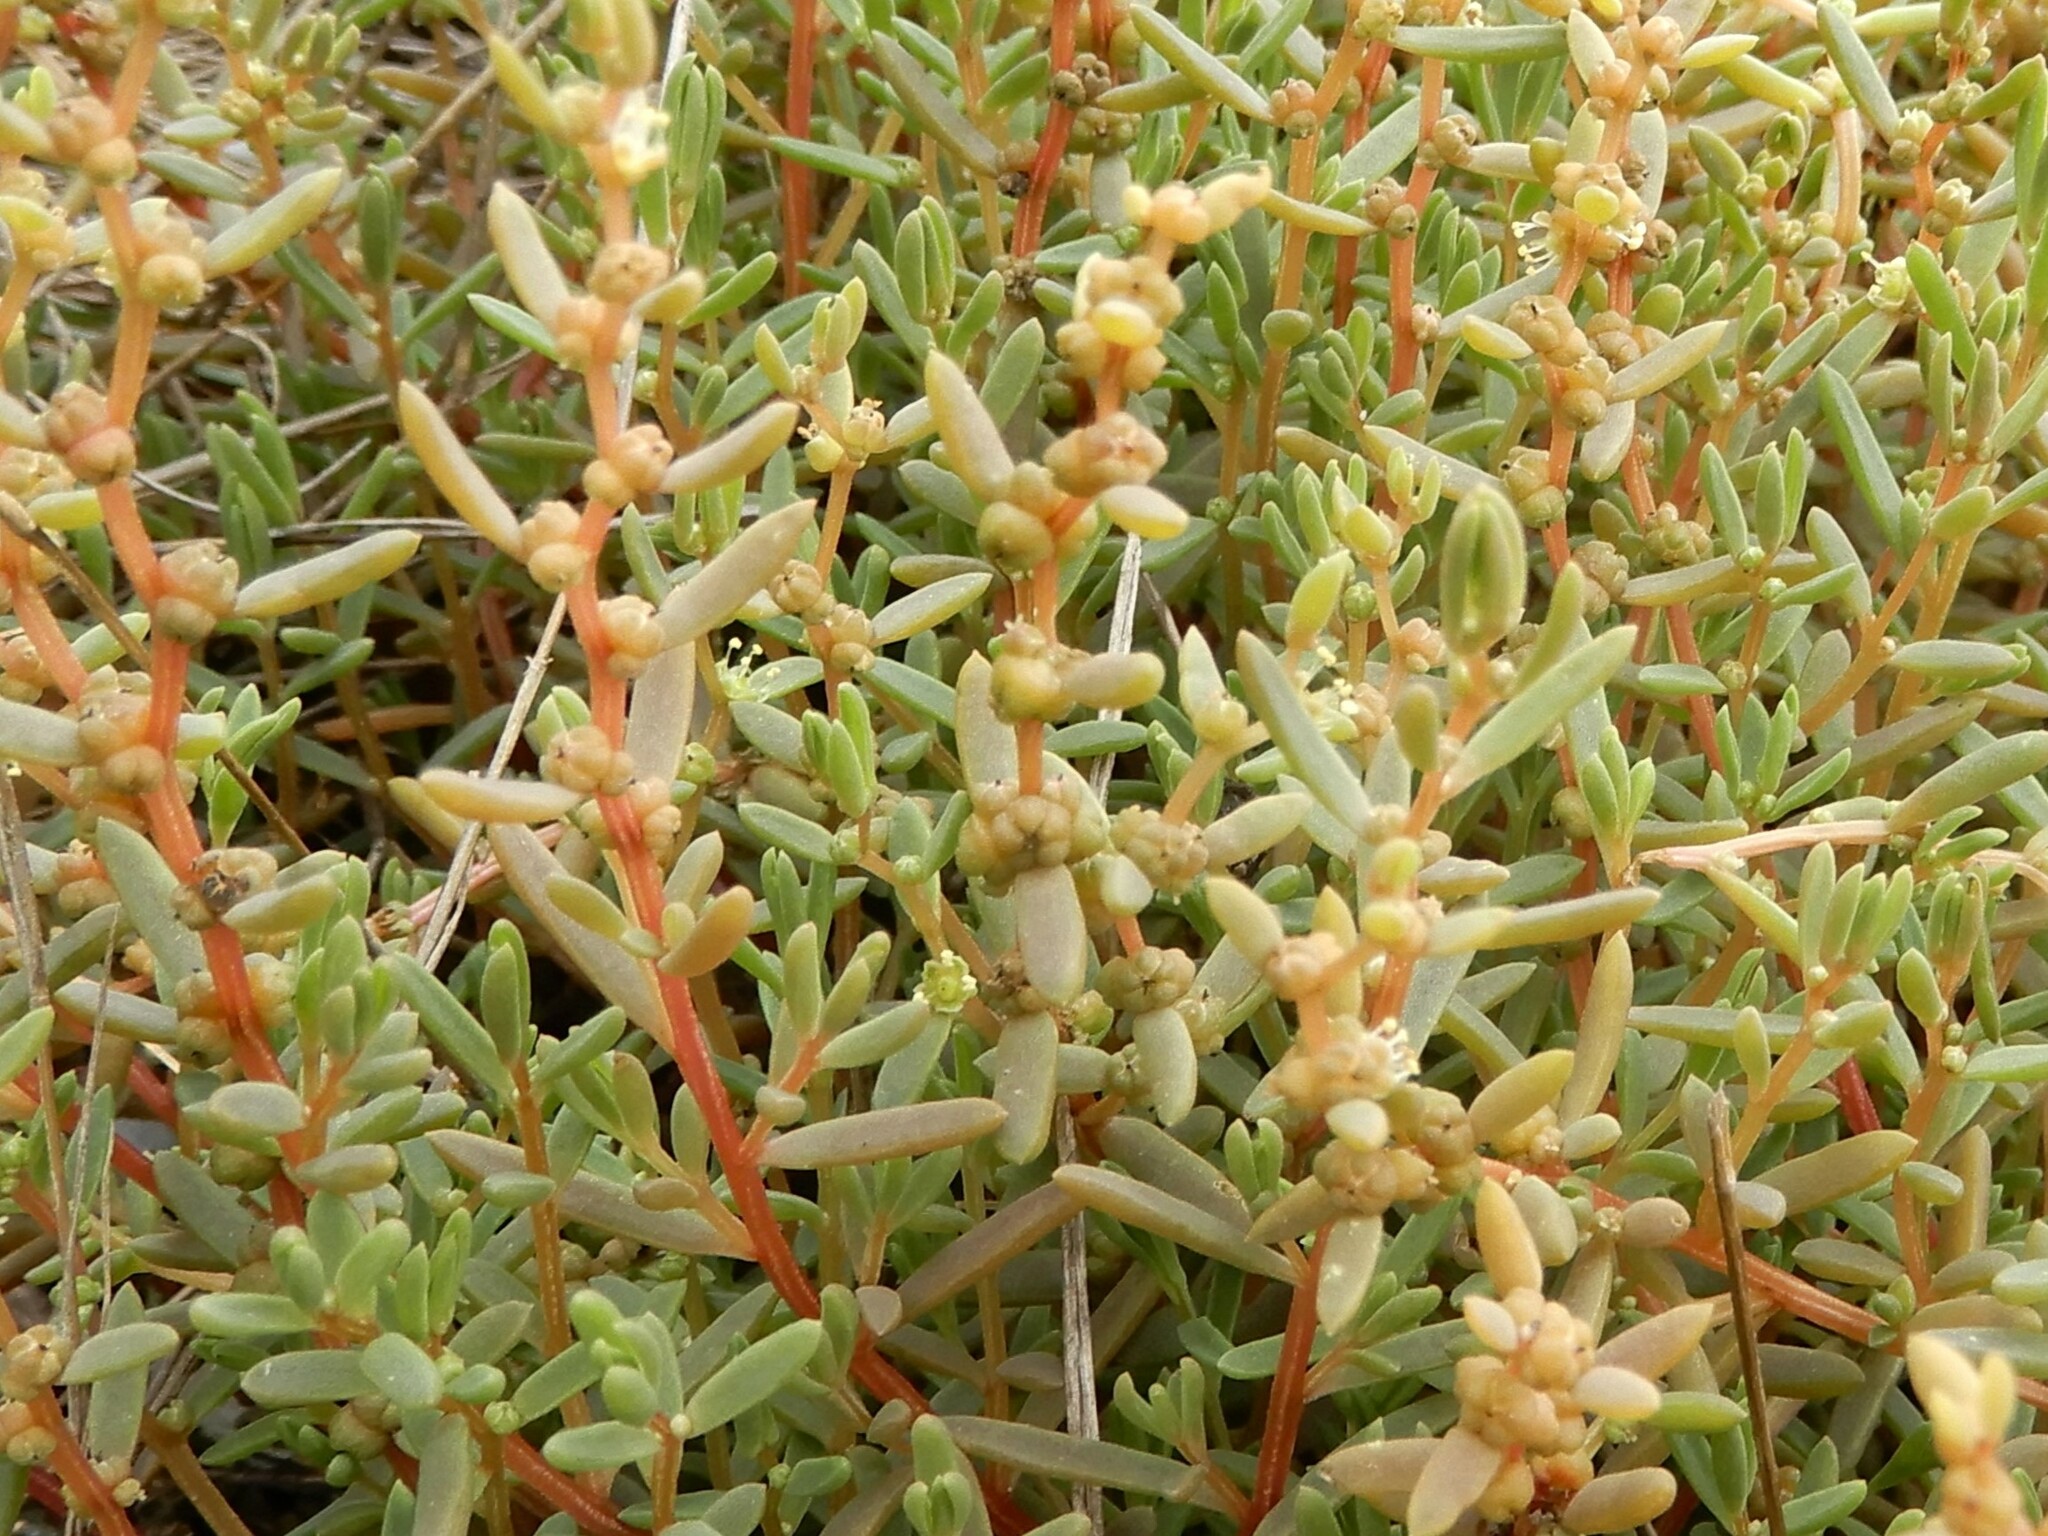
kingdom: Plantae
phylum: Tracheophyta
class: Magnoliopsida
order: Caryophyllales
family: Amaranthaceae
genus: Suaeda
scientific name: Suaeda novae-zelandiae
